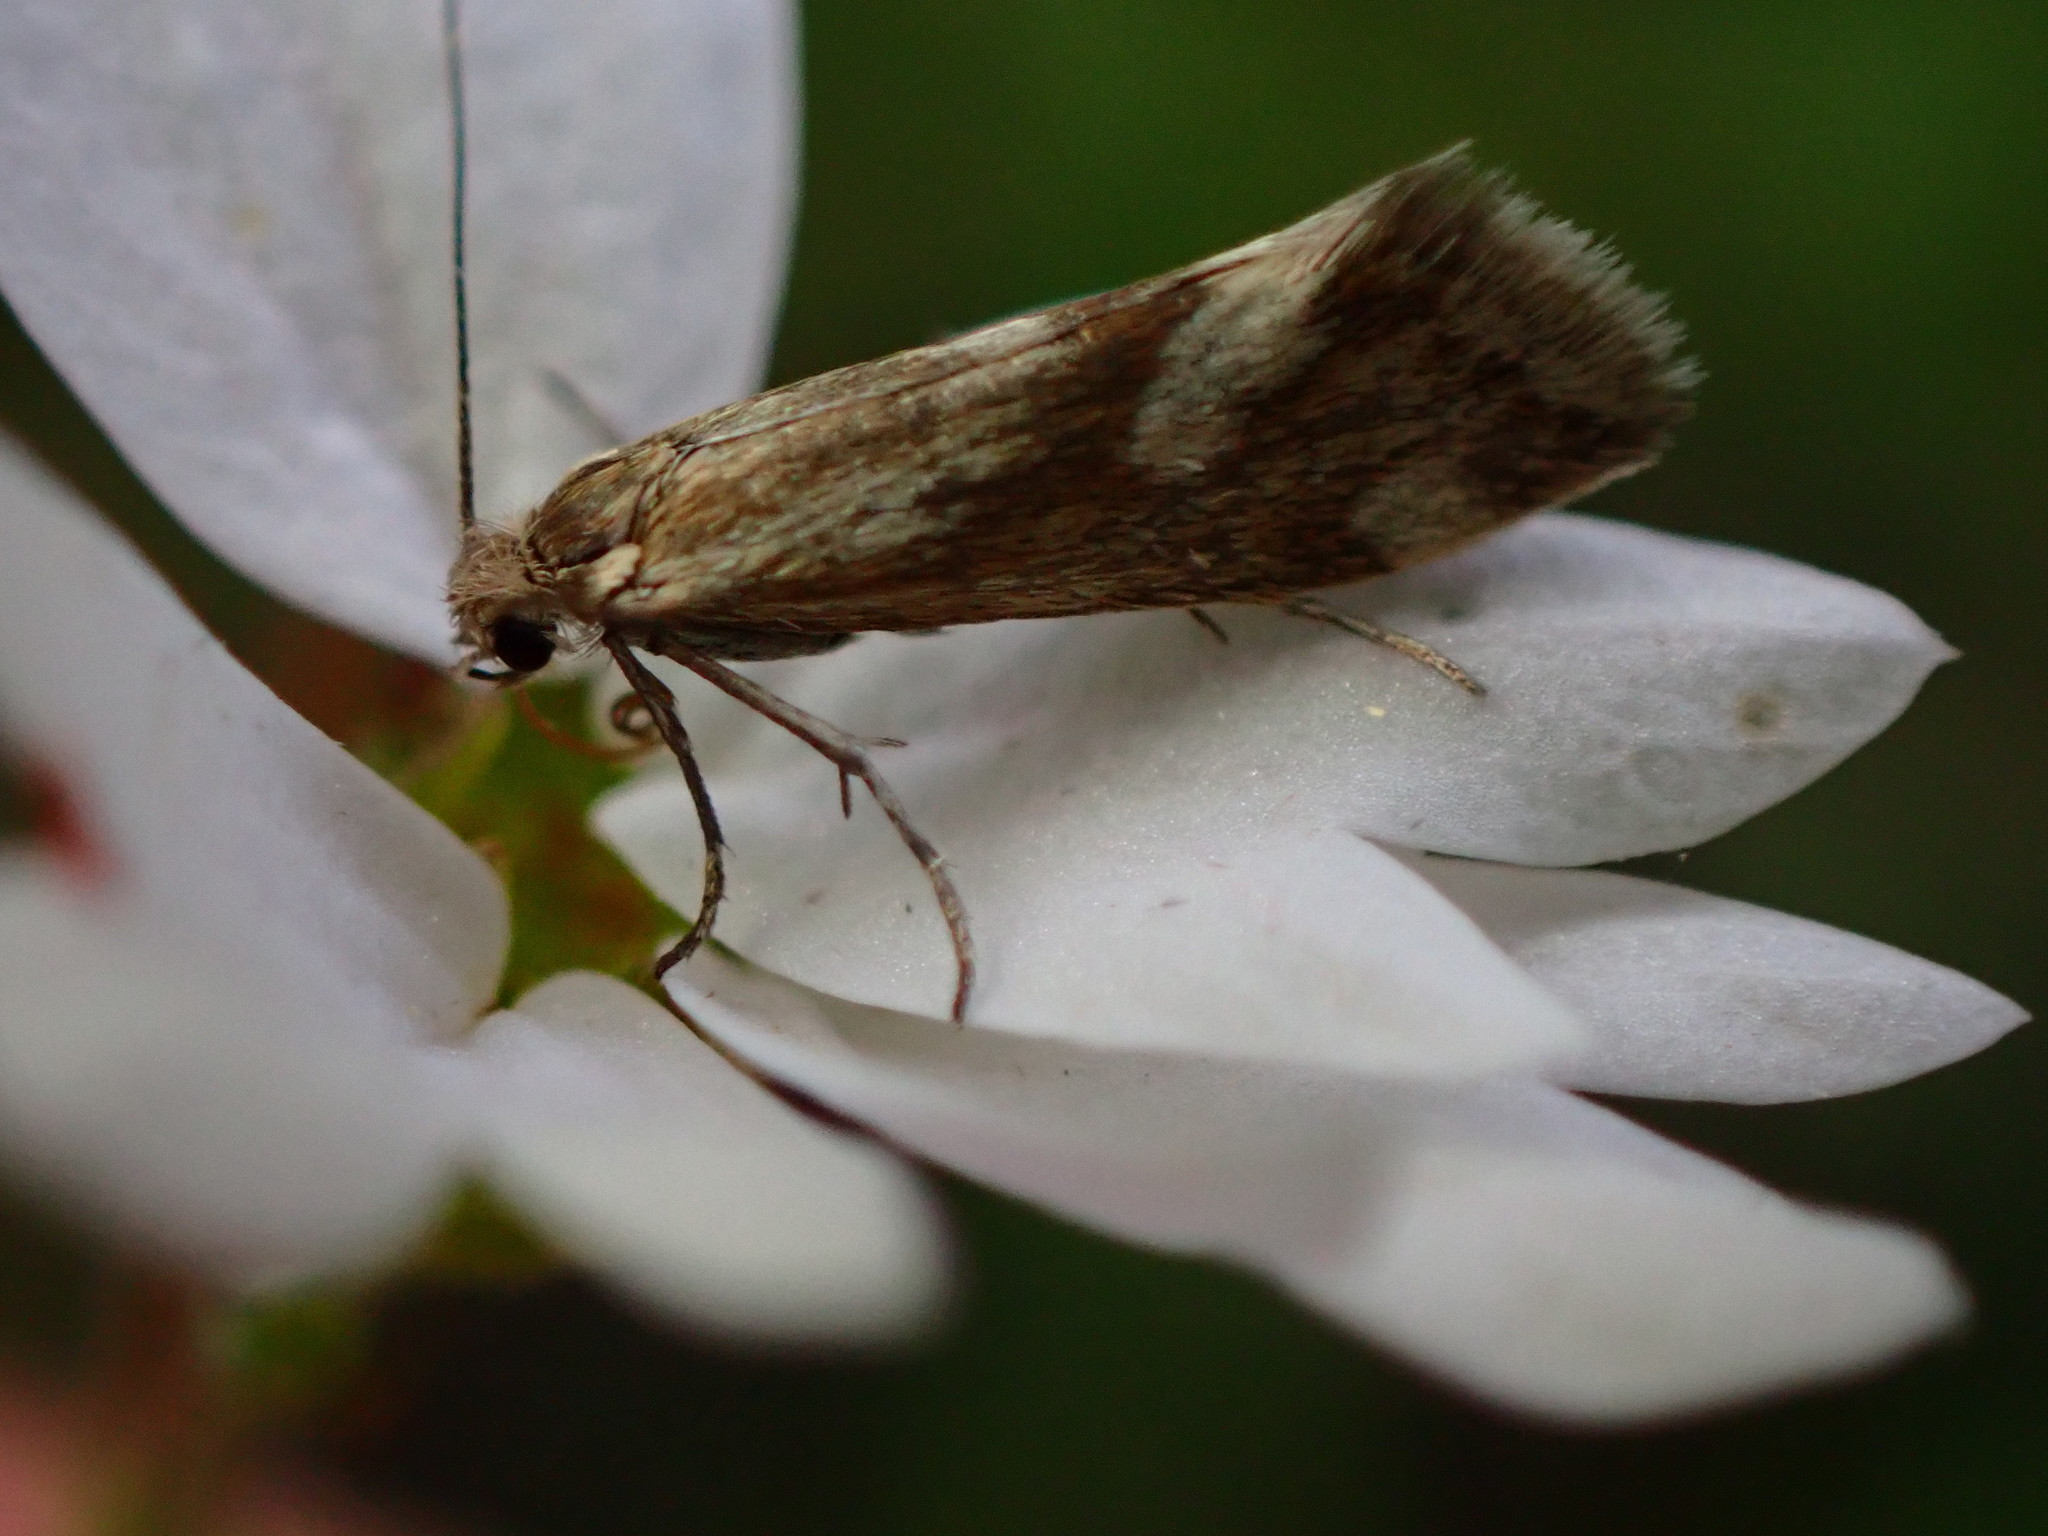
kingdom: Animalia
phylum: Arthropoda
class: Insecta
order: Lepidoptera
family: Prodoxidae
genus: Greya
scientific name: Greya obscura
